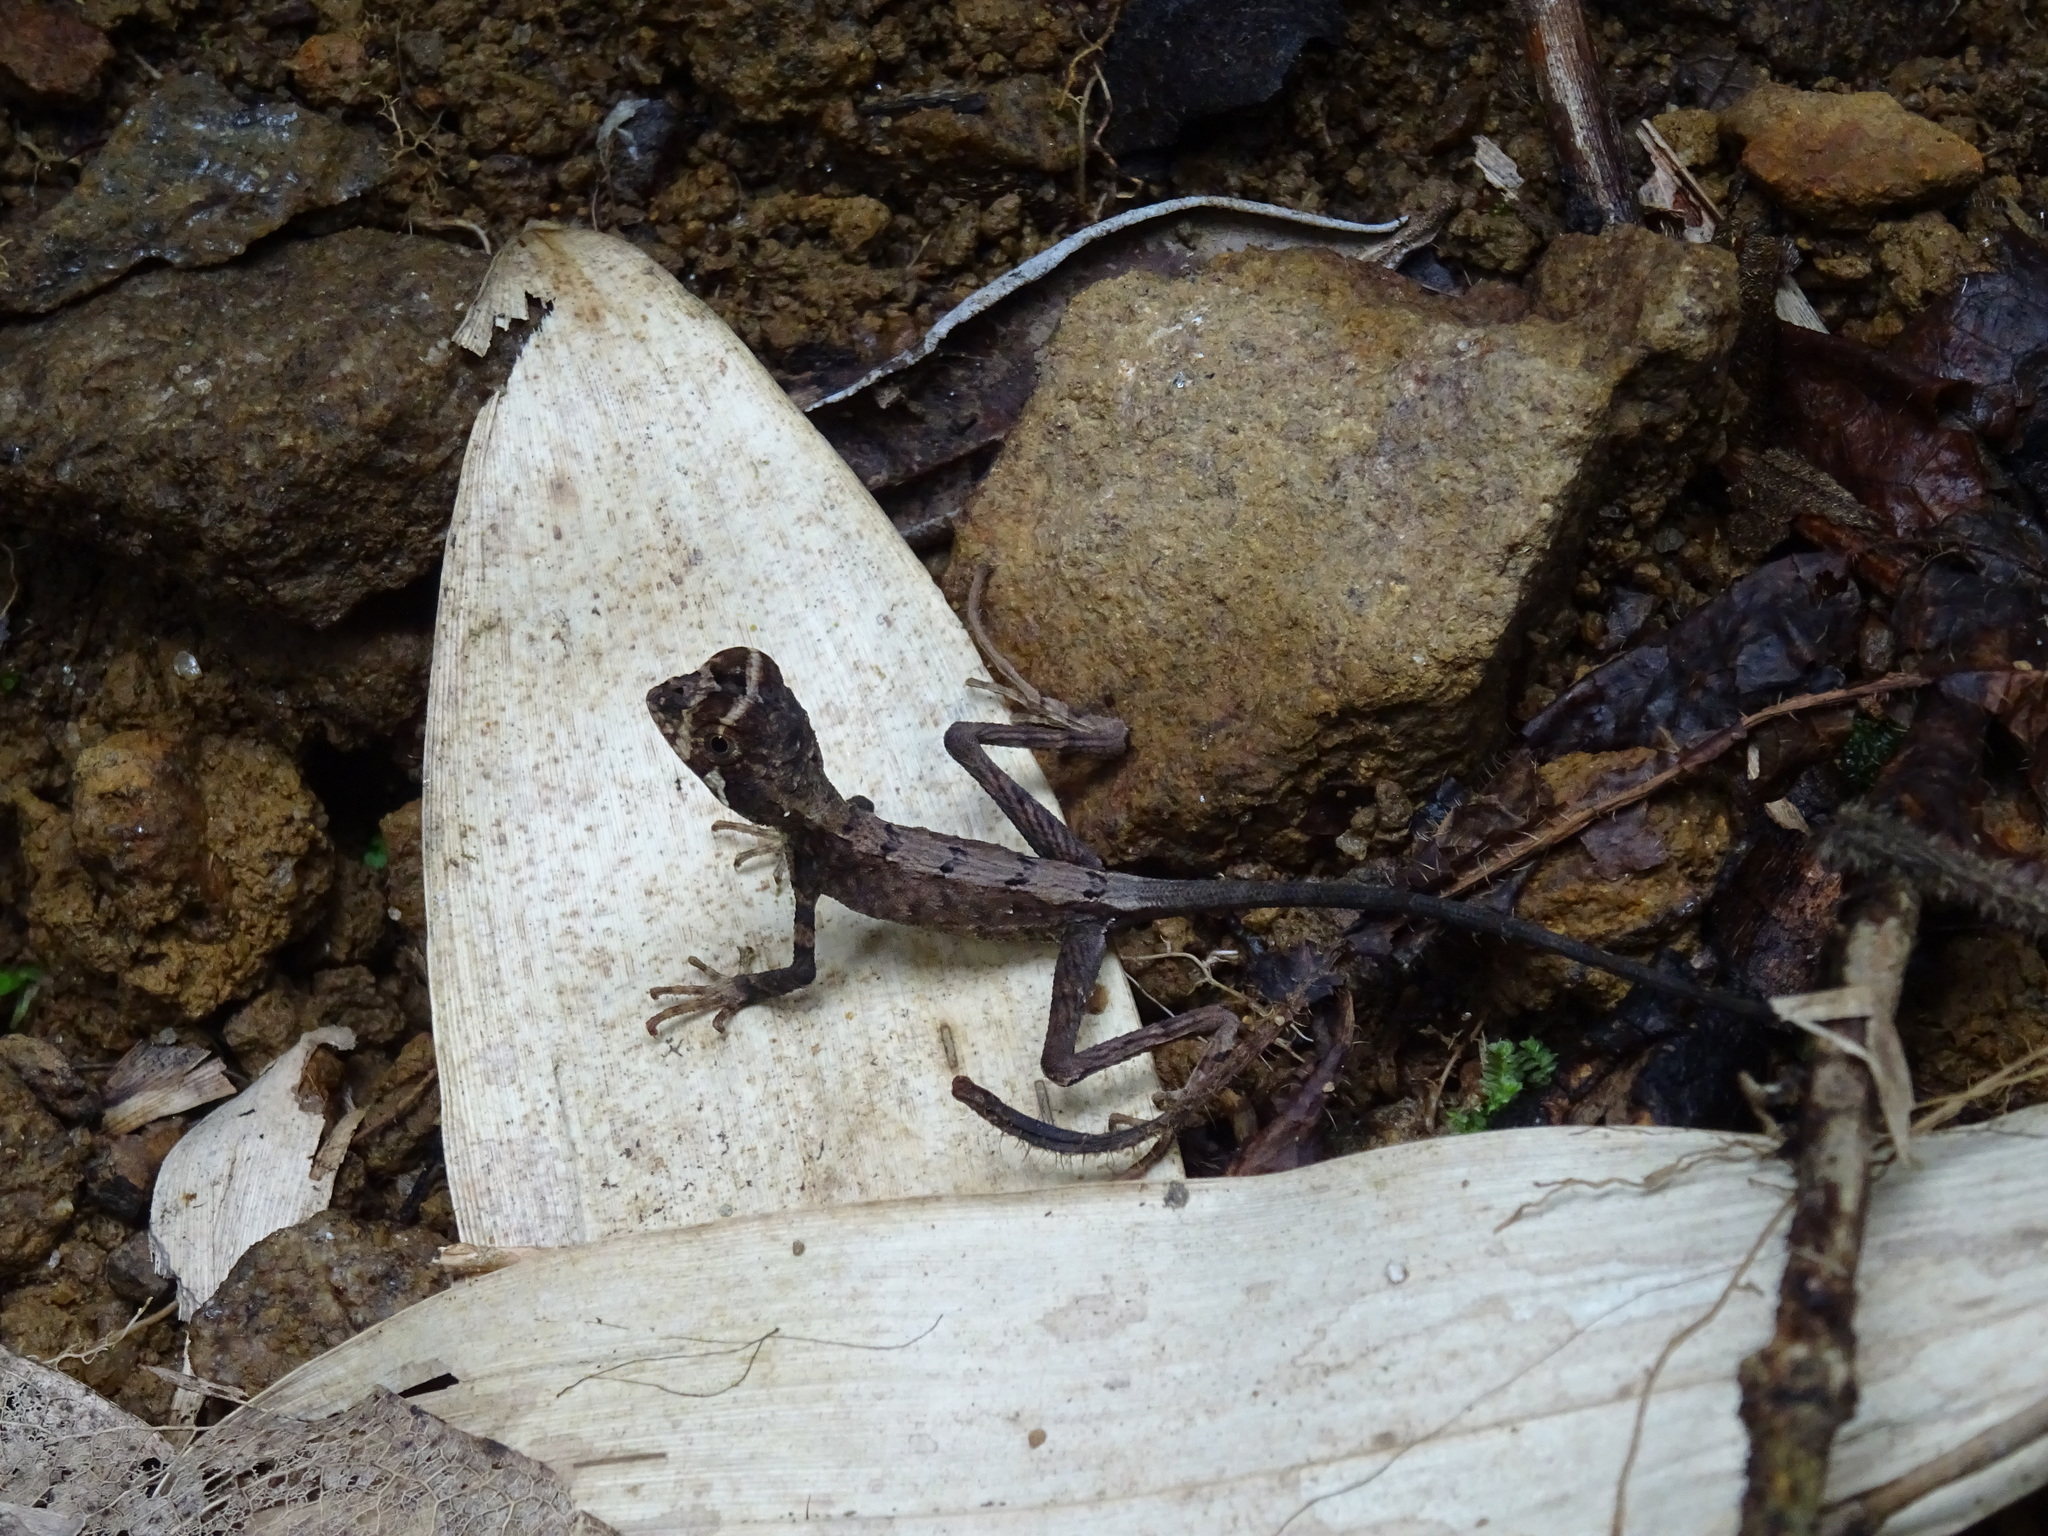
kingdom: Animalia
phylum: Chordata
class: Squamata
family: Agamidae
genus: Otocryptis
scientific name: Otocryptis wiegmanni
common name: Wiegmann's agama
